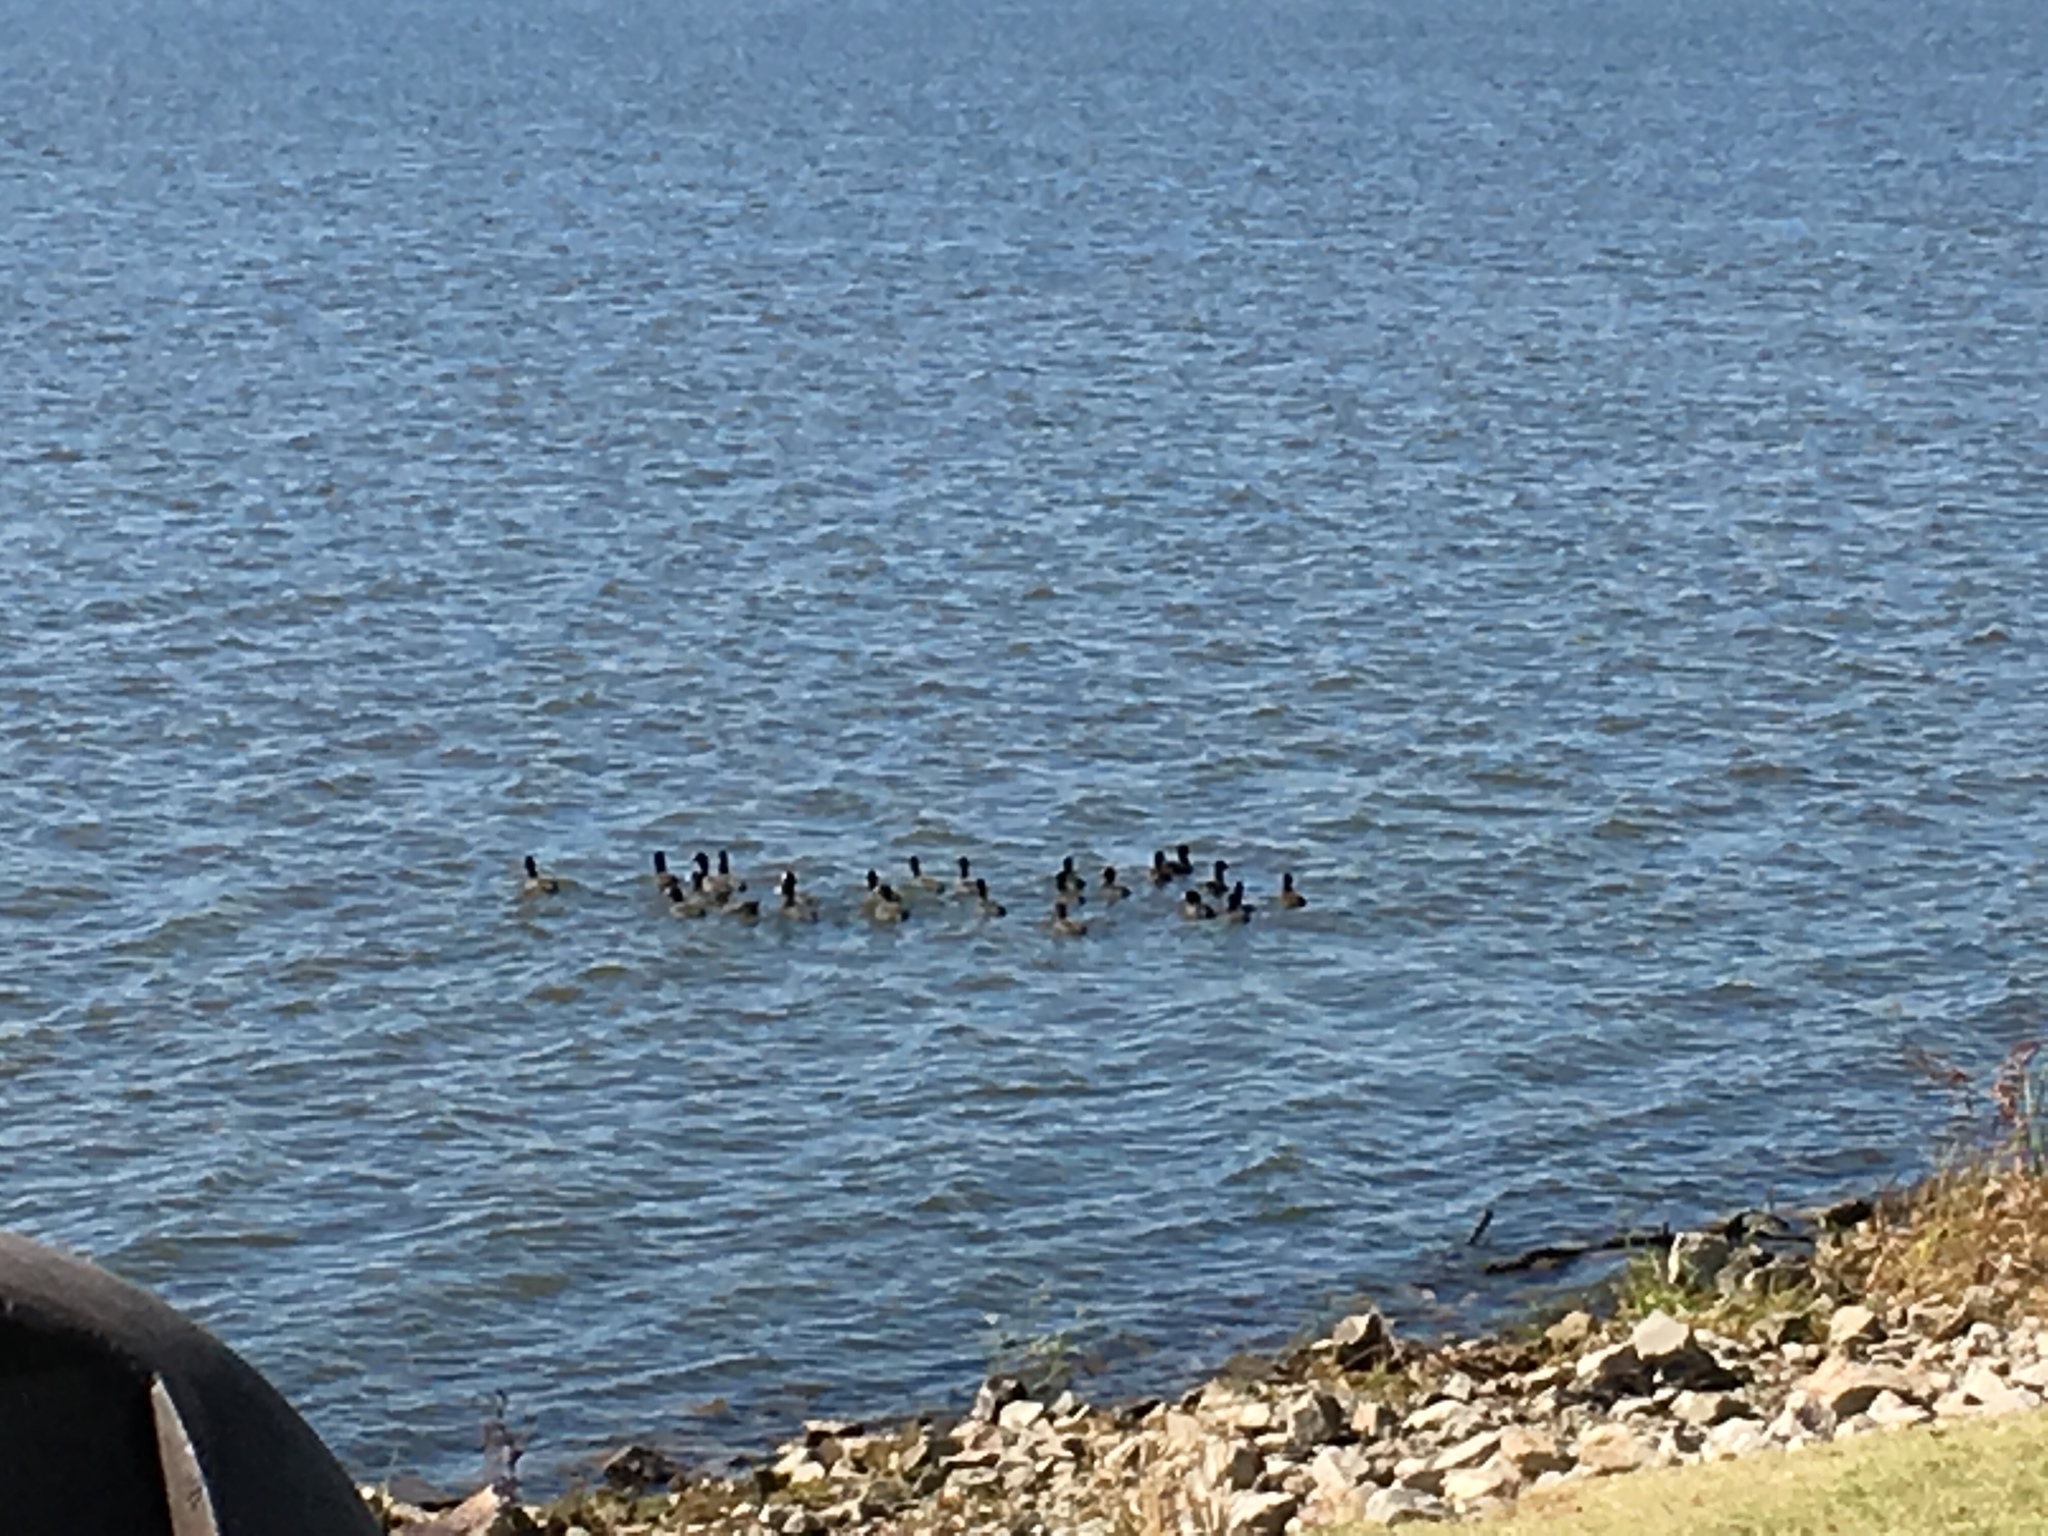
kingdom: Animalia
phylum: Chordata
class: Aves
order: Gruiformes
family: Rallidae
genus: Fulica
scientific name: Fulica americana
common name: American coot
